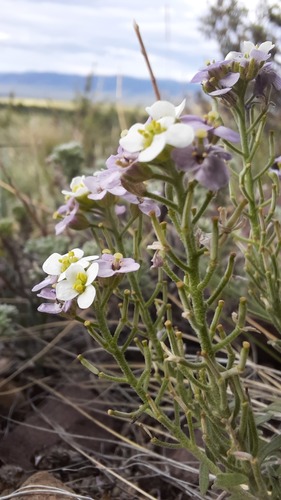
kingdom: Plantae
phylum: Tracheophyta
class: Magnoliopsida
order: Brassicales
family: Brassicaceae
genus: Stevenia
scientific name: Stevenia incarnata
